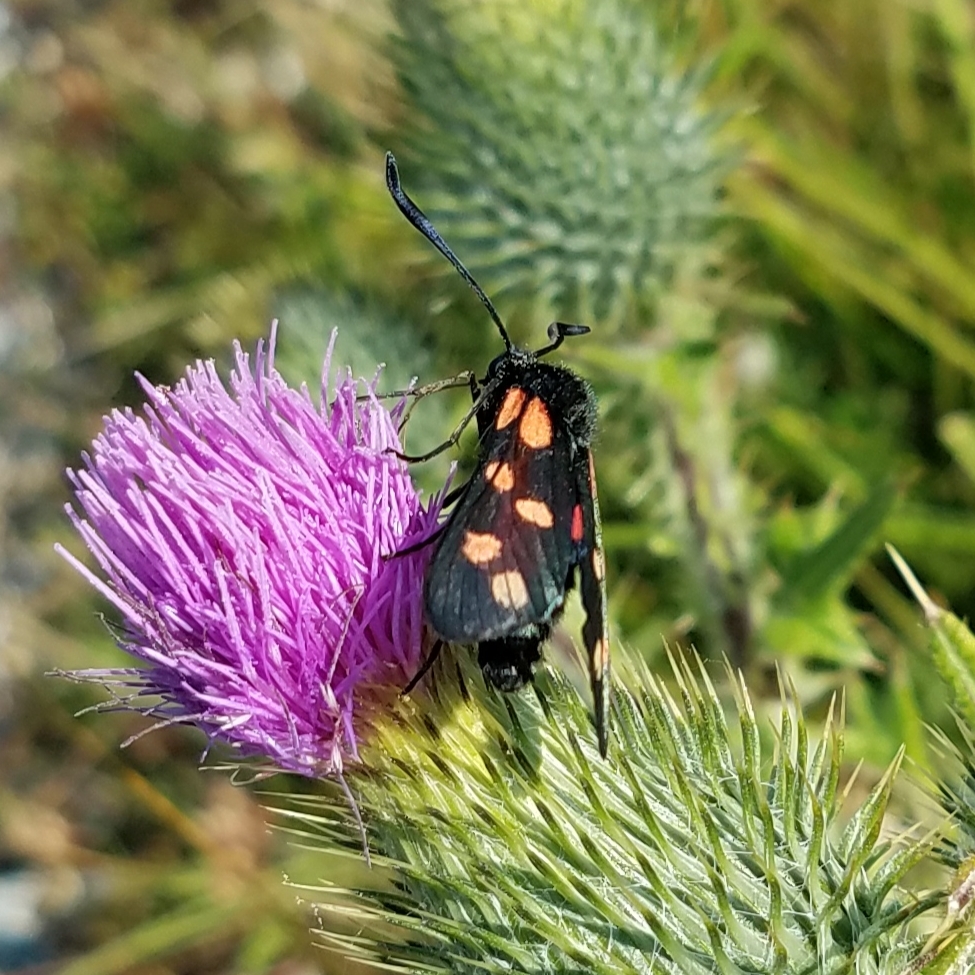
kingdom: Animalia
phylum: Arthropoda
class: Insecta
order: Lepidoptera
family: Zygaenidae
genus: Zygaena
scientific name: Zygaena filipendulae
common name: Six-spot burnet
